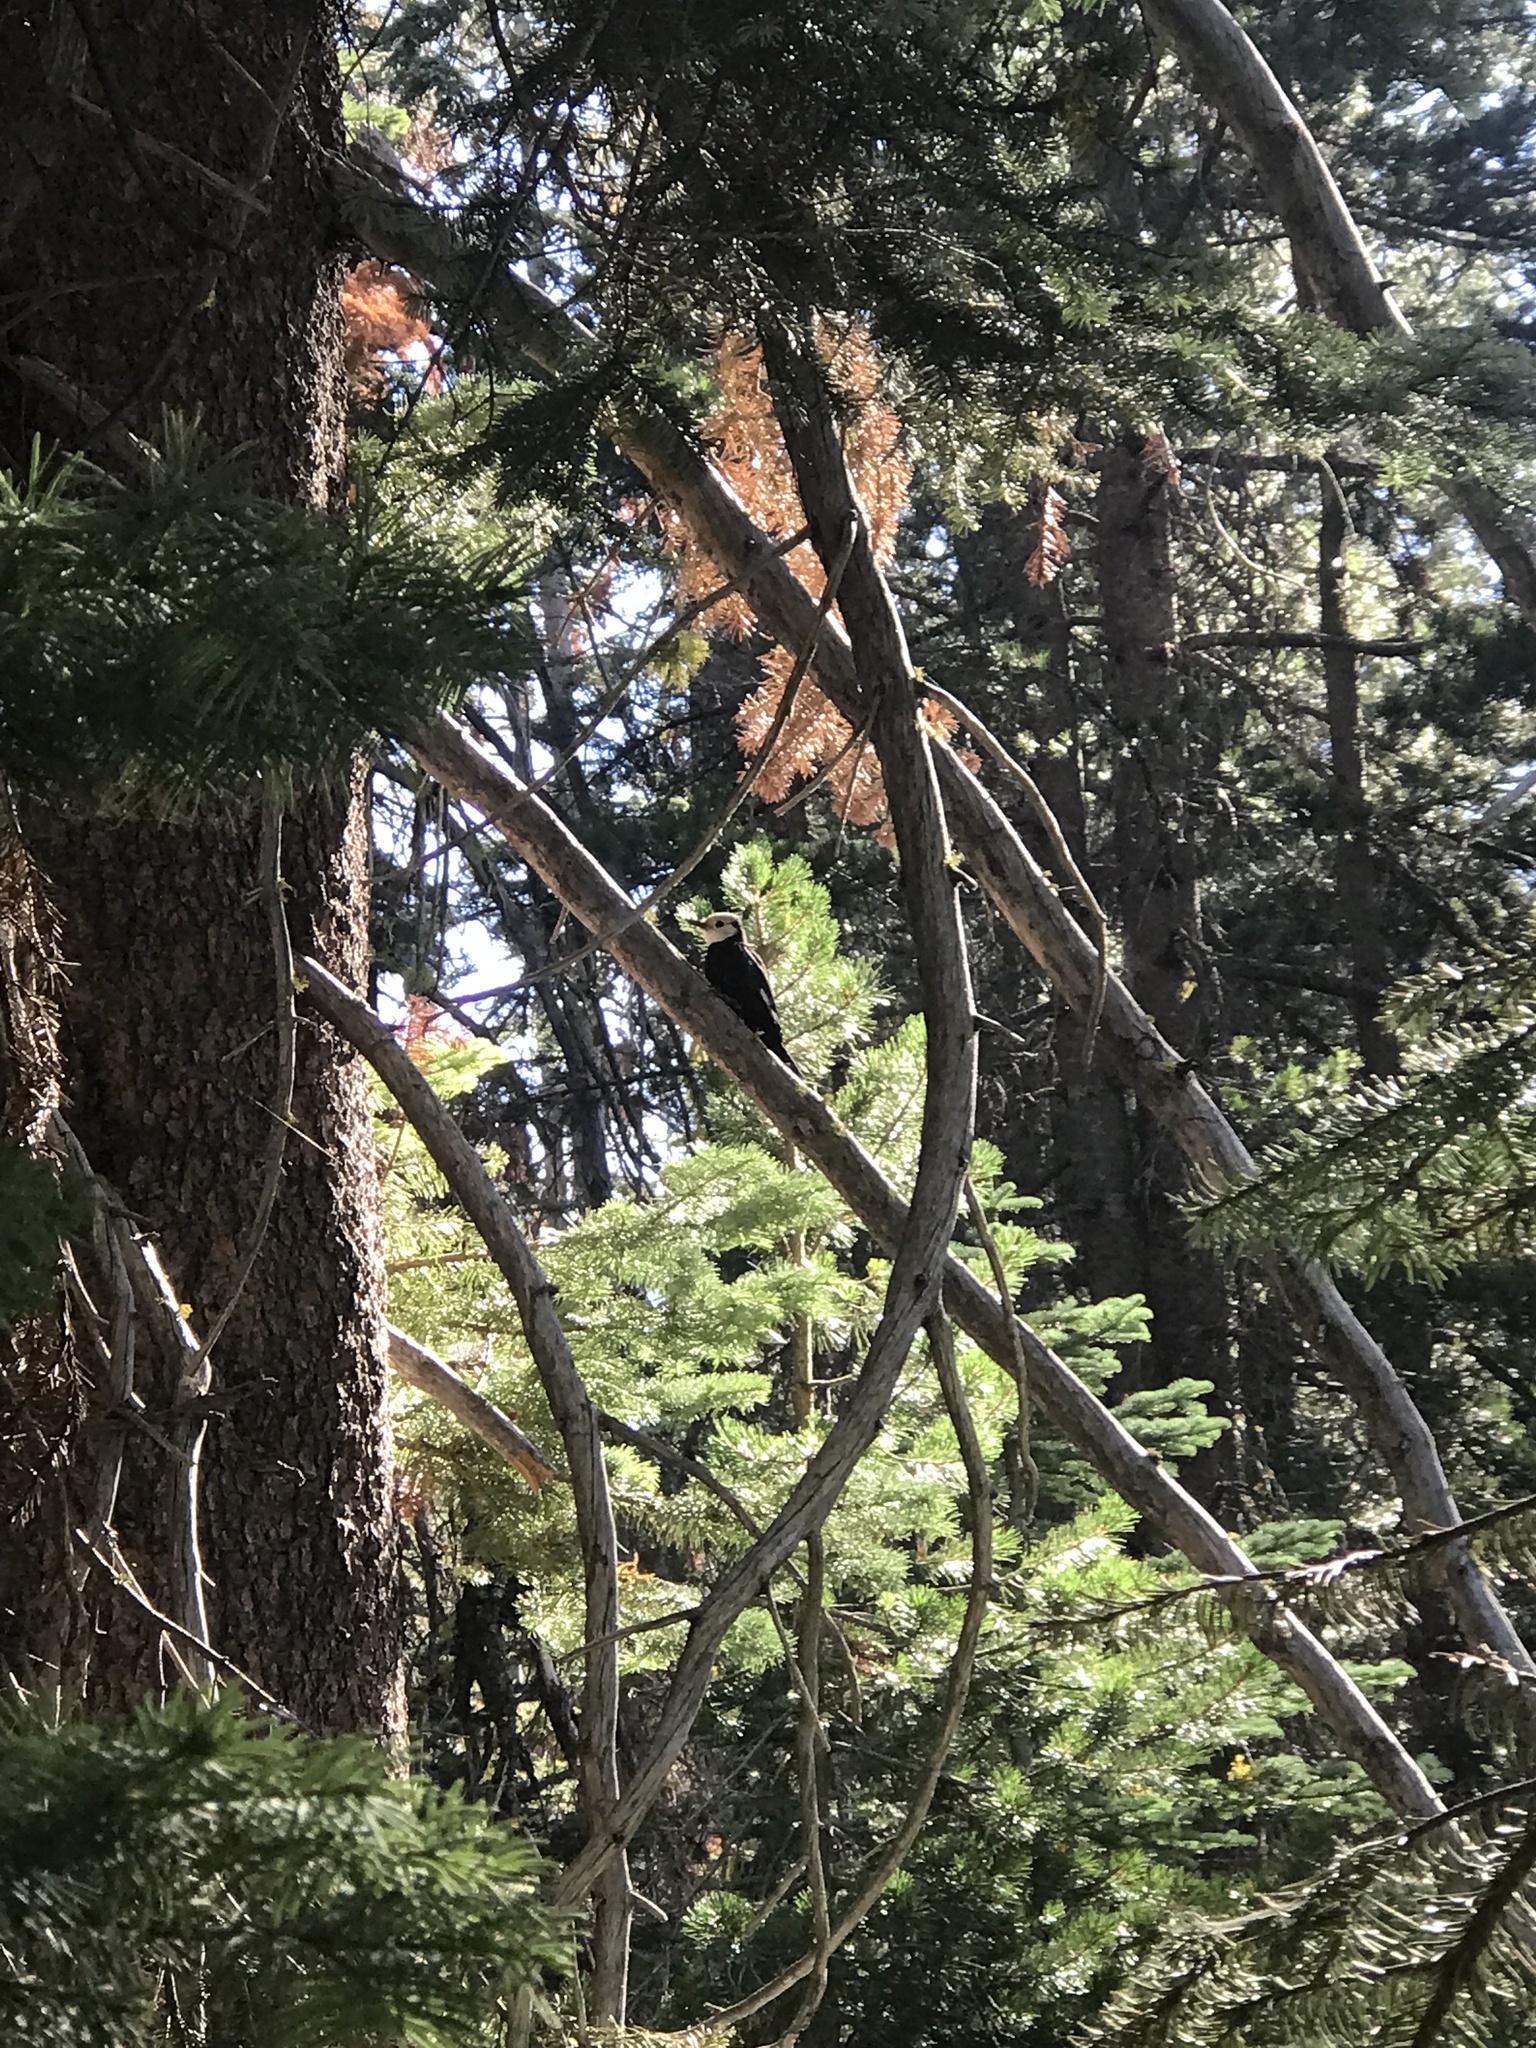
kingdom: Animalia
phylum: Chordata
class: Aves
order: Piciformes
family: Picidae
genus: Leuconotopicus
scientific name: Leuconotopicus albolarvatus
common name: White-headed woodpecker
